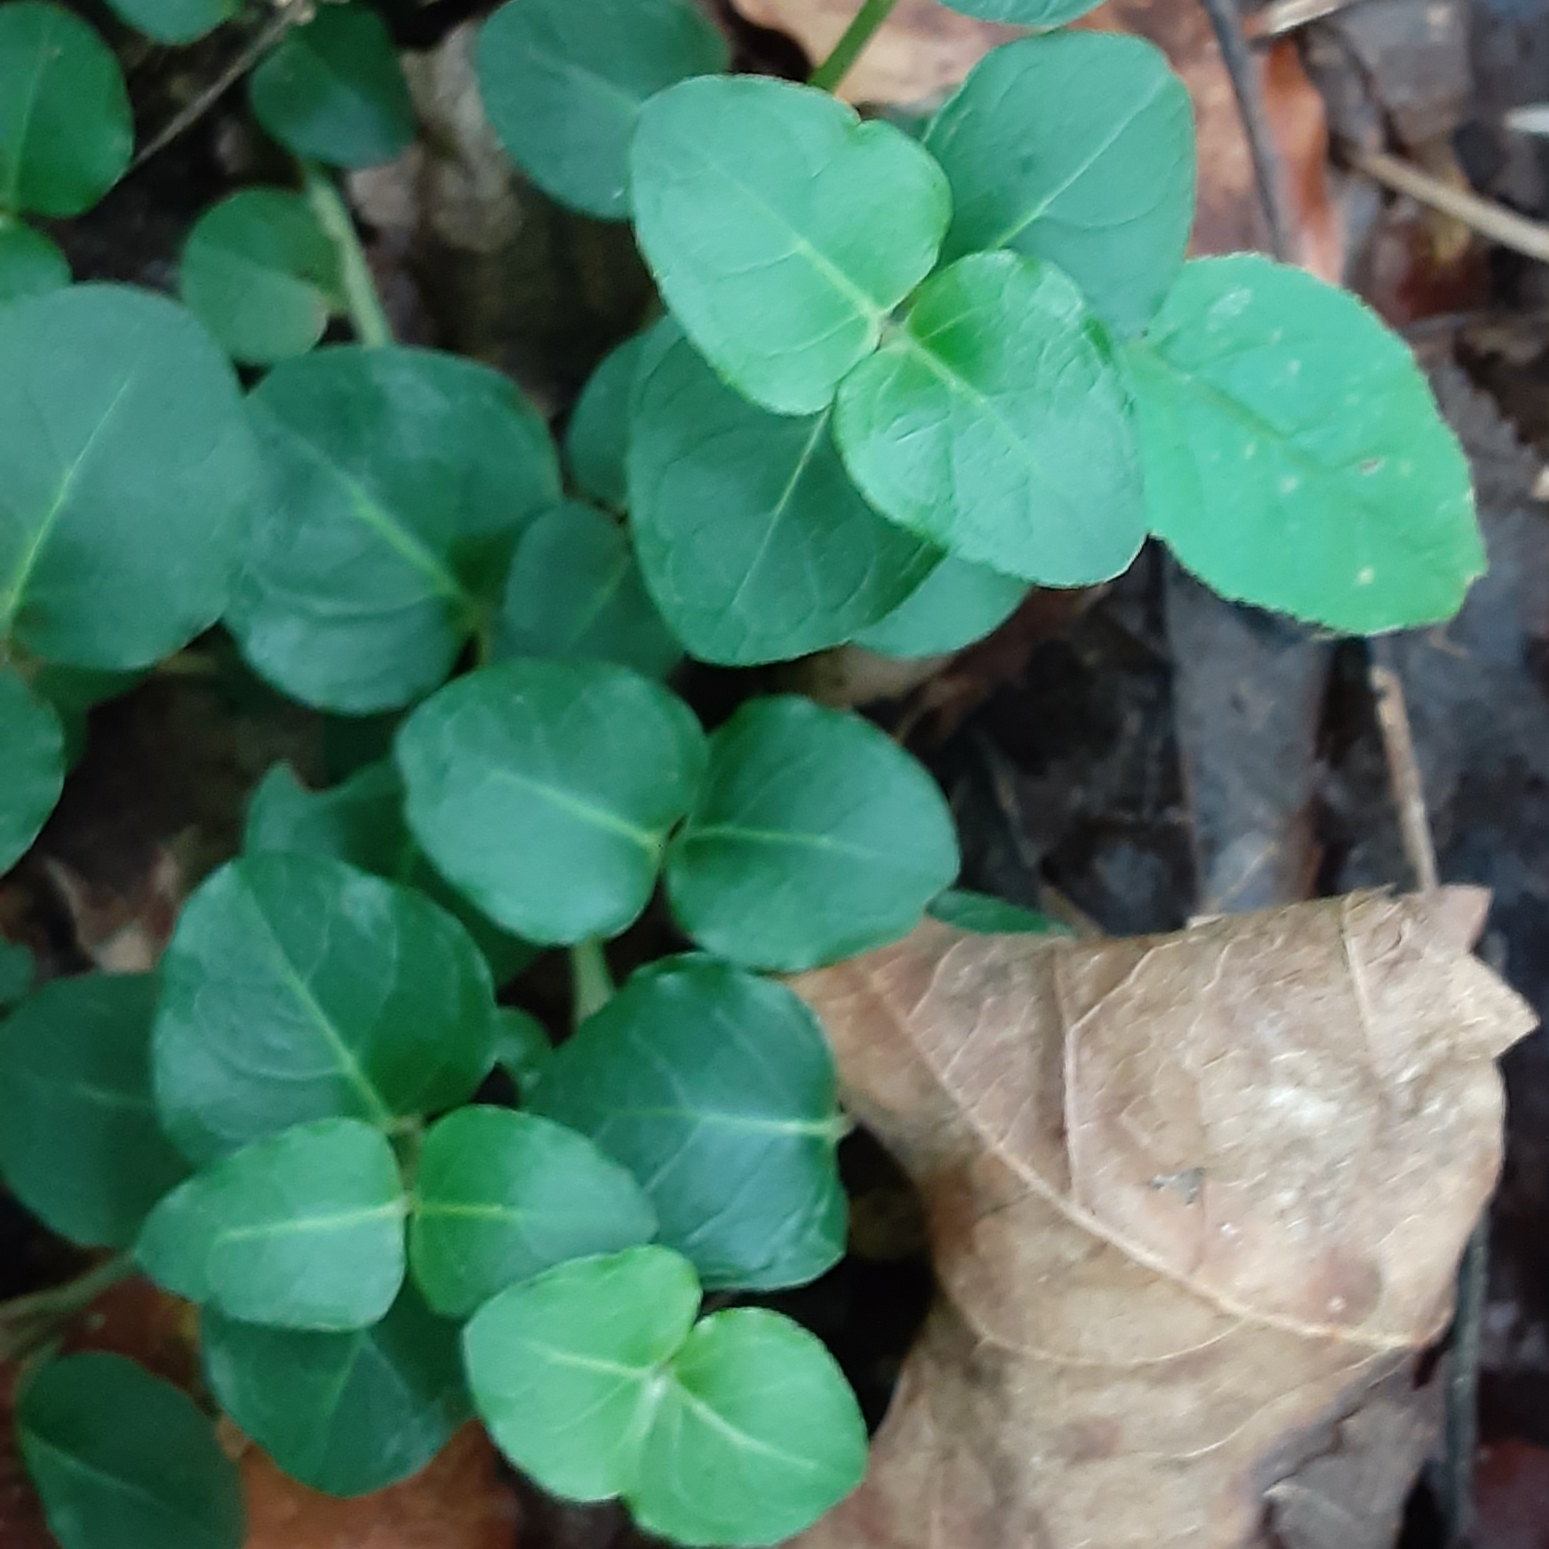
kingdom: Plantae
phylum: Tracheophyta
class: Magnoliopsida
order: Gentianales
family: Rubiaceae
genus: Mitchella
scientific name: Mitchella repens
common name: Partridge-berry
